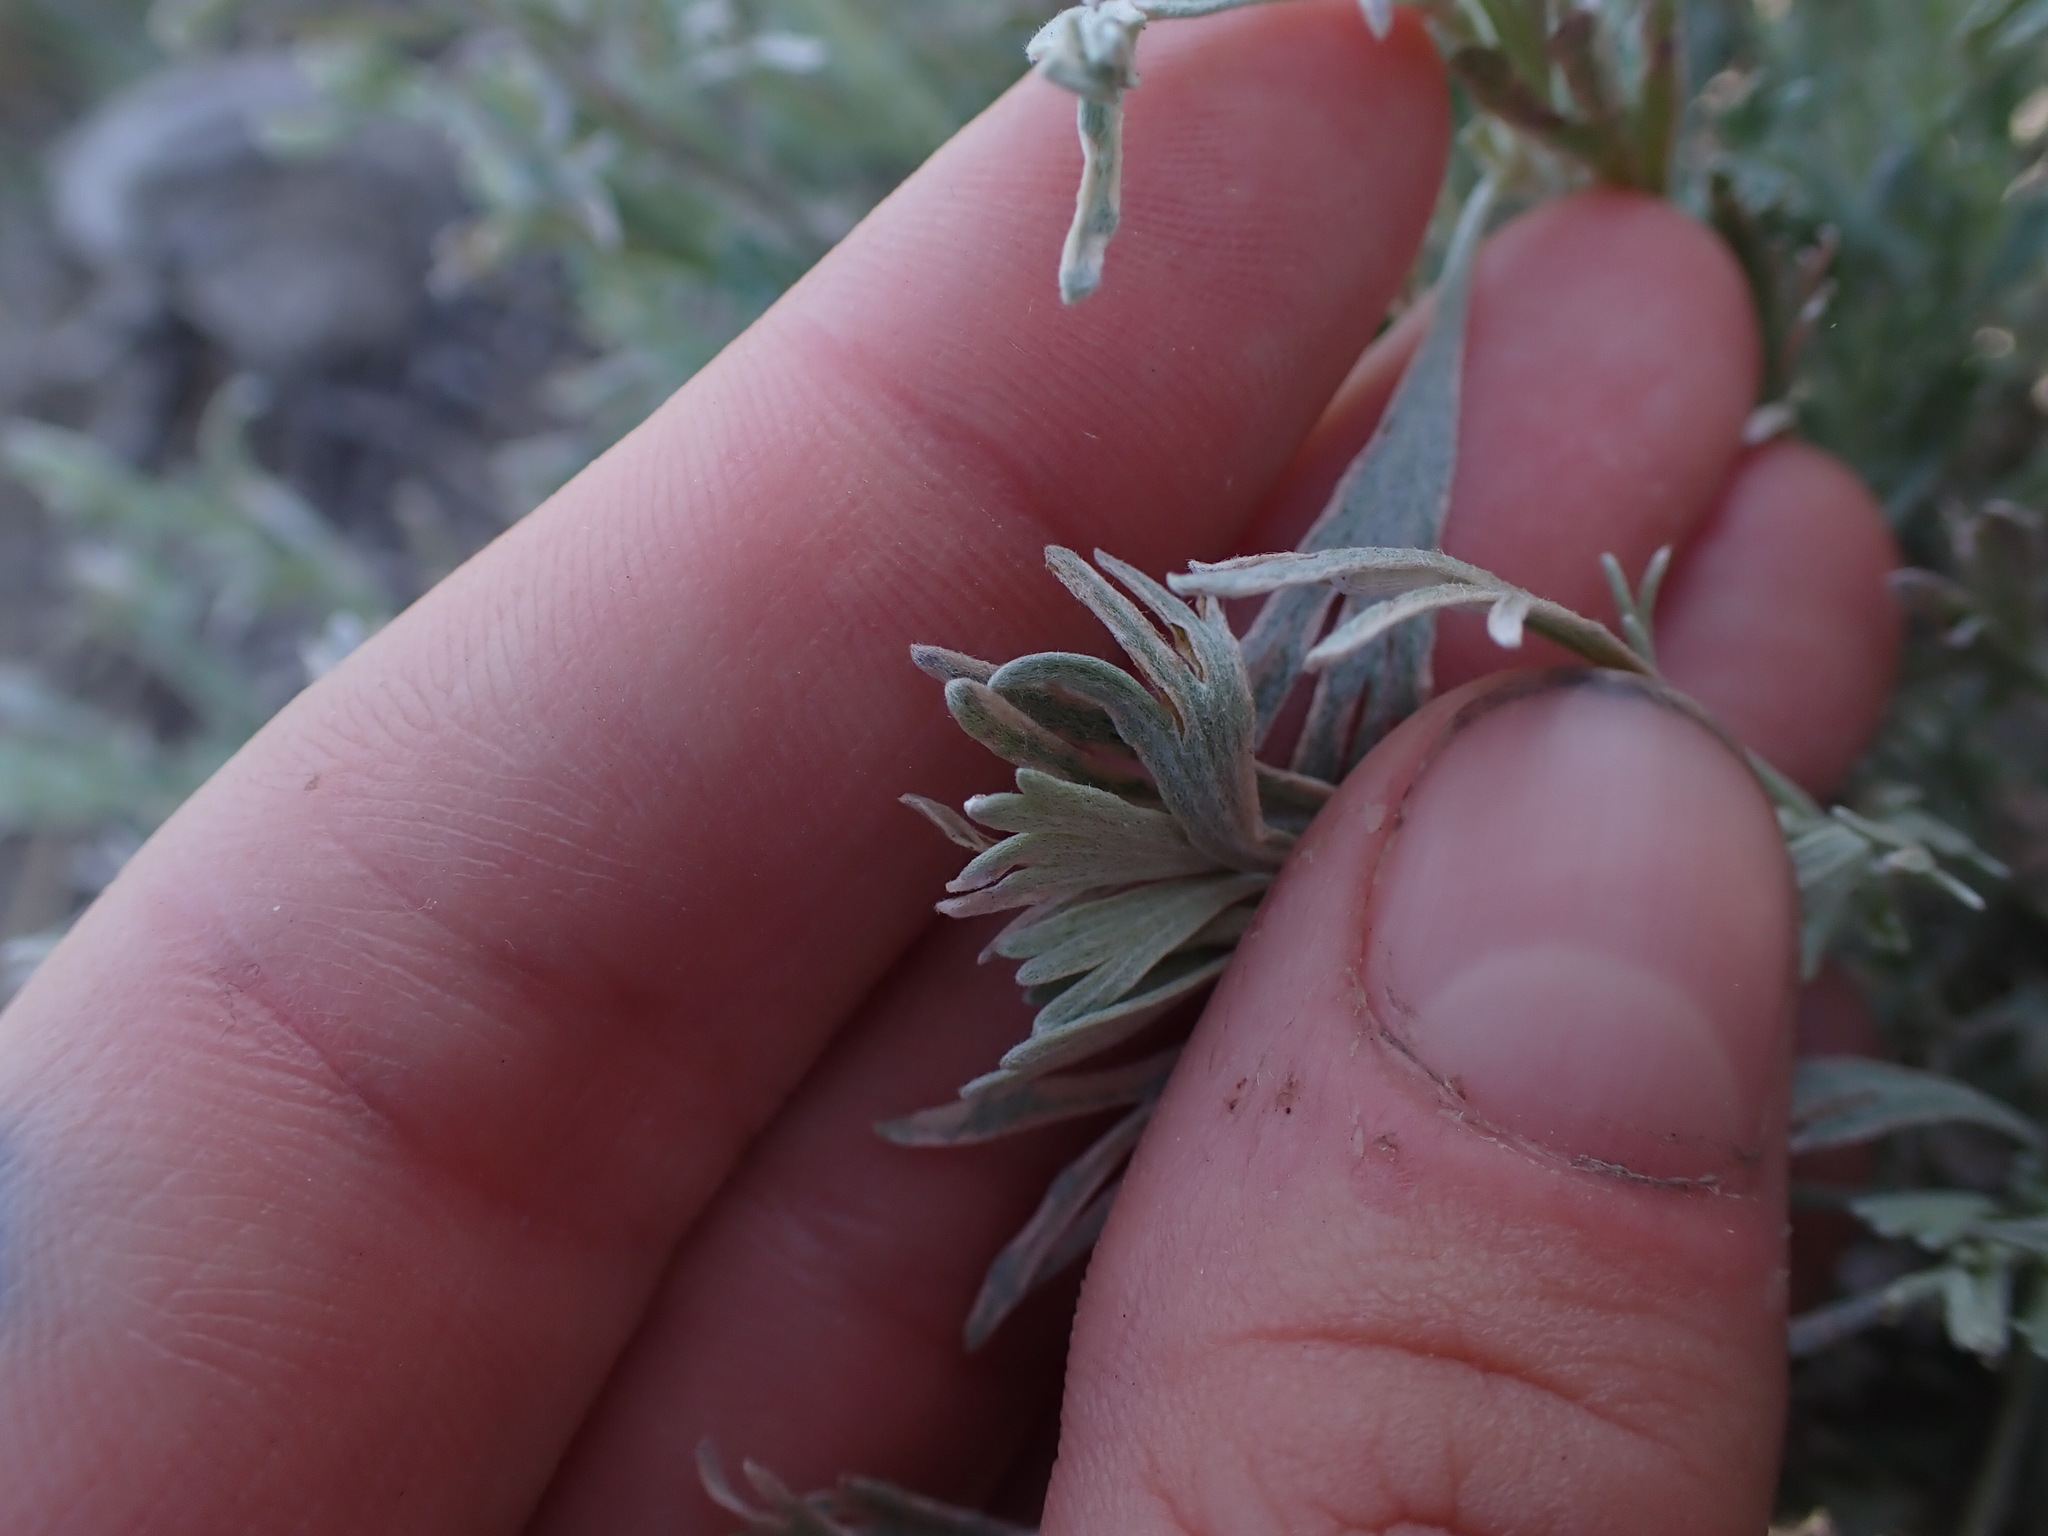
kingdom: Plantae
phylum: Tracheophyta
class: Magnoliopsida
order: Asterales
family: Asteraceae
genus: Artemisia
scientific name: Artemisia frigida
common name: Prairie sagewort
